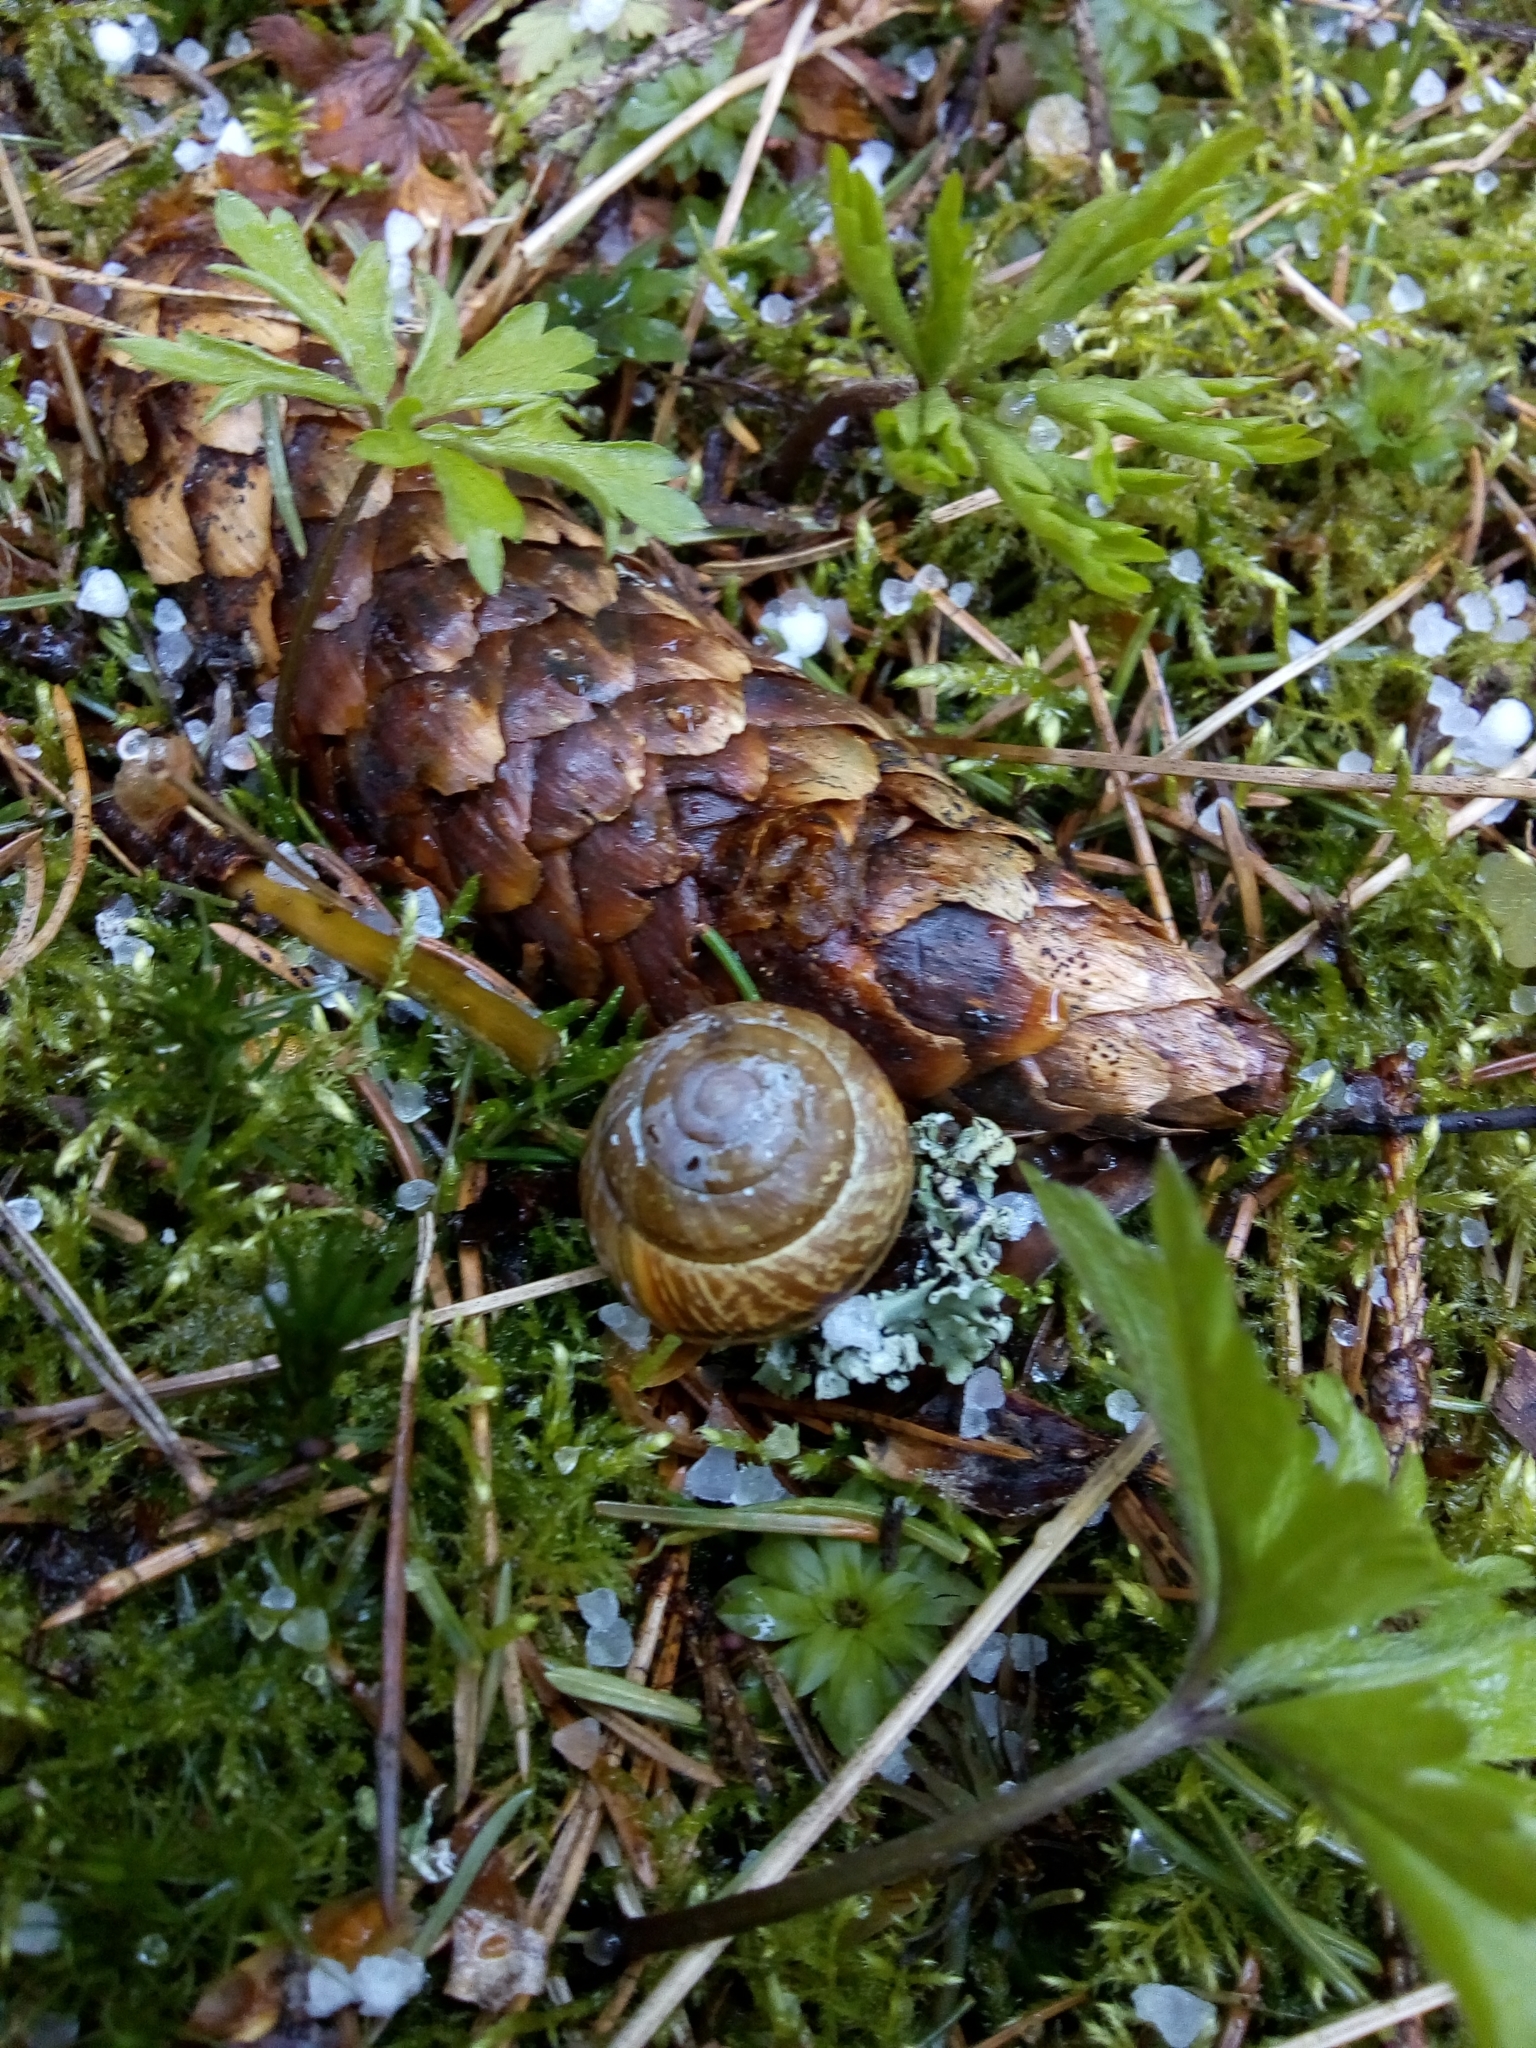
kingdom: Animalia
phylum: Mollusca
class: Gastropoda
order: Stylommatophora
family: Helicidae
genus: Arianta
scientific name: Arianta arbustorum
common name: Copse snail
